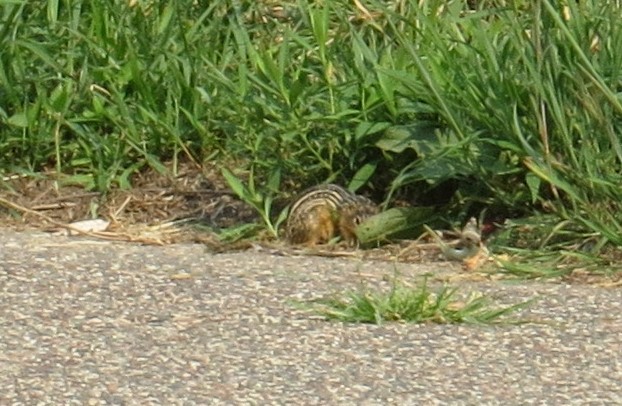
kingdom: Animalia
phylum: Chordata
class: Mammalia
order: Rodentia
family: Sciuridae
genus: Ictidomys
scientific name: Ictidomys tridecemlineatus
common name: Thirteen-lined ground squirrel
